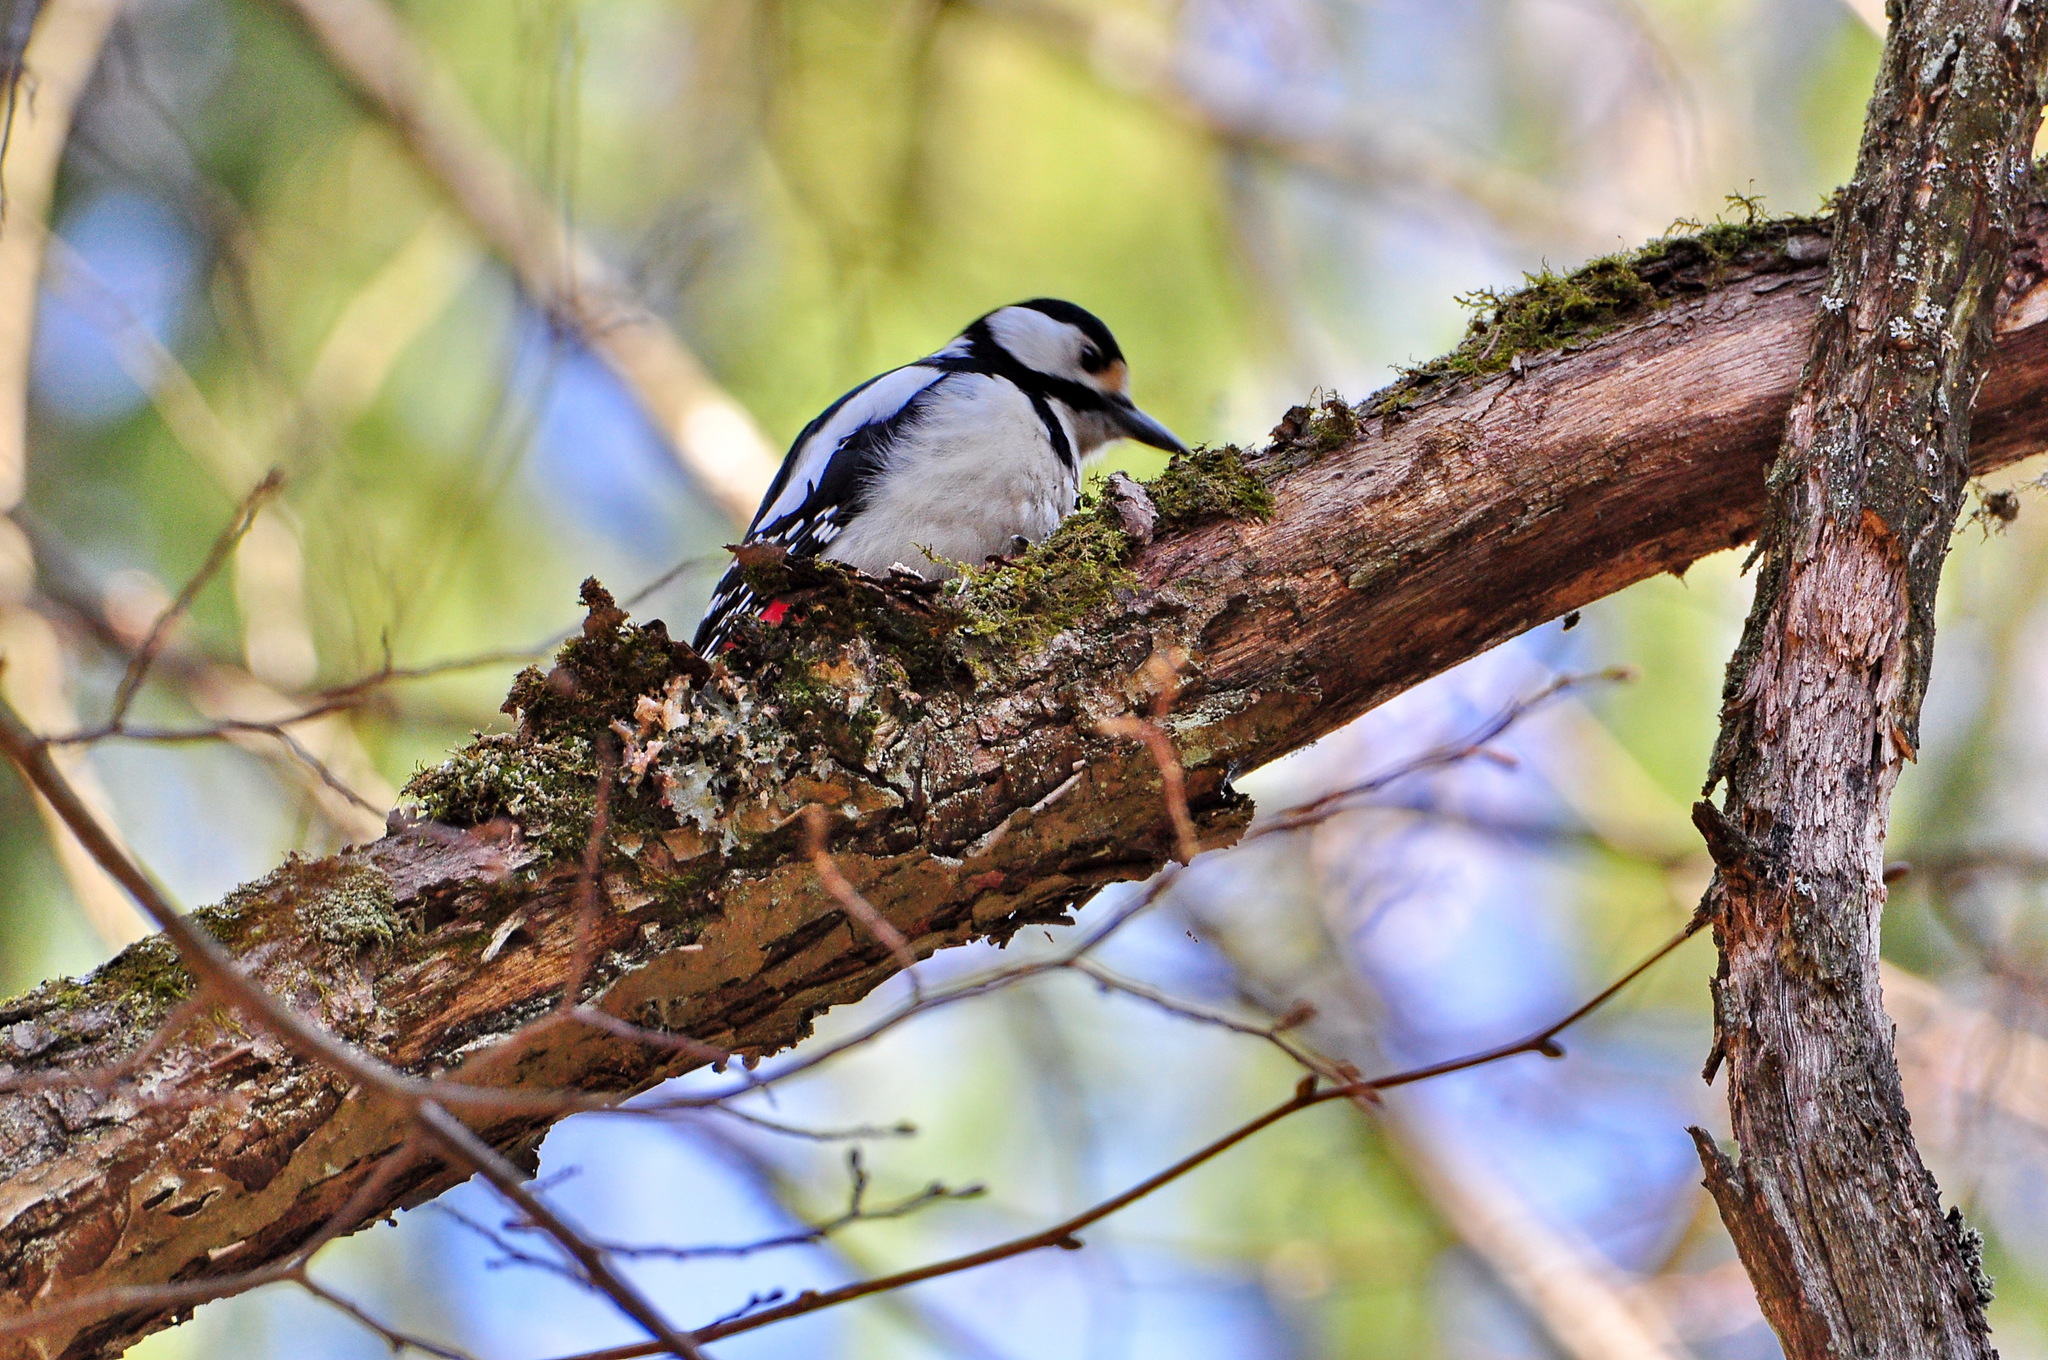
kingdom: Animalia
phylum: Chordata
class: Aves
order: Piciformes
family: Picidae
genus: Dendrocopos
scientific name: Dendrocopos major
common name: Great spotted woodpecker
